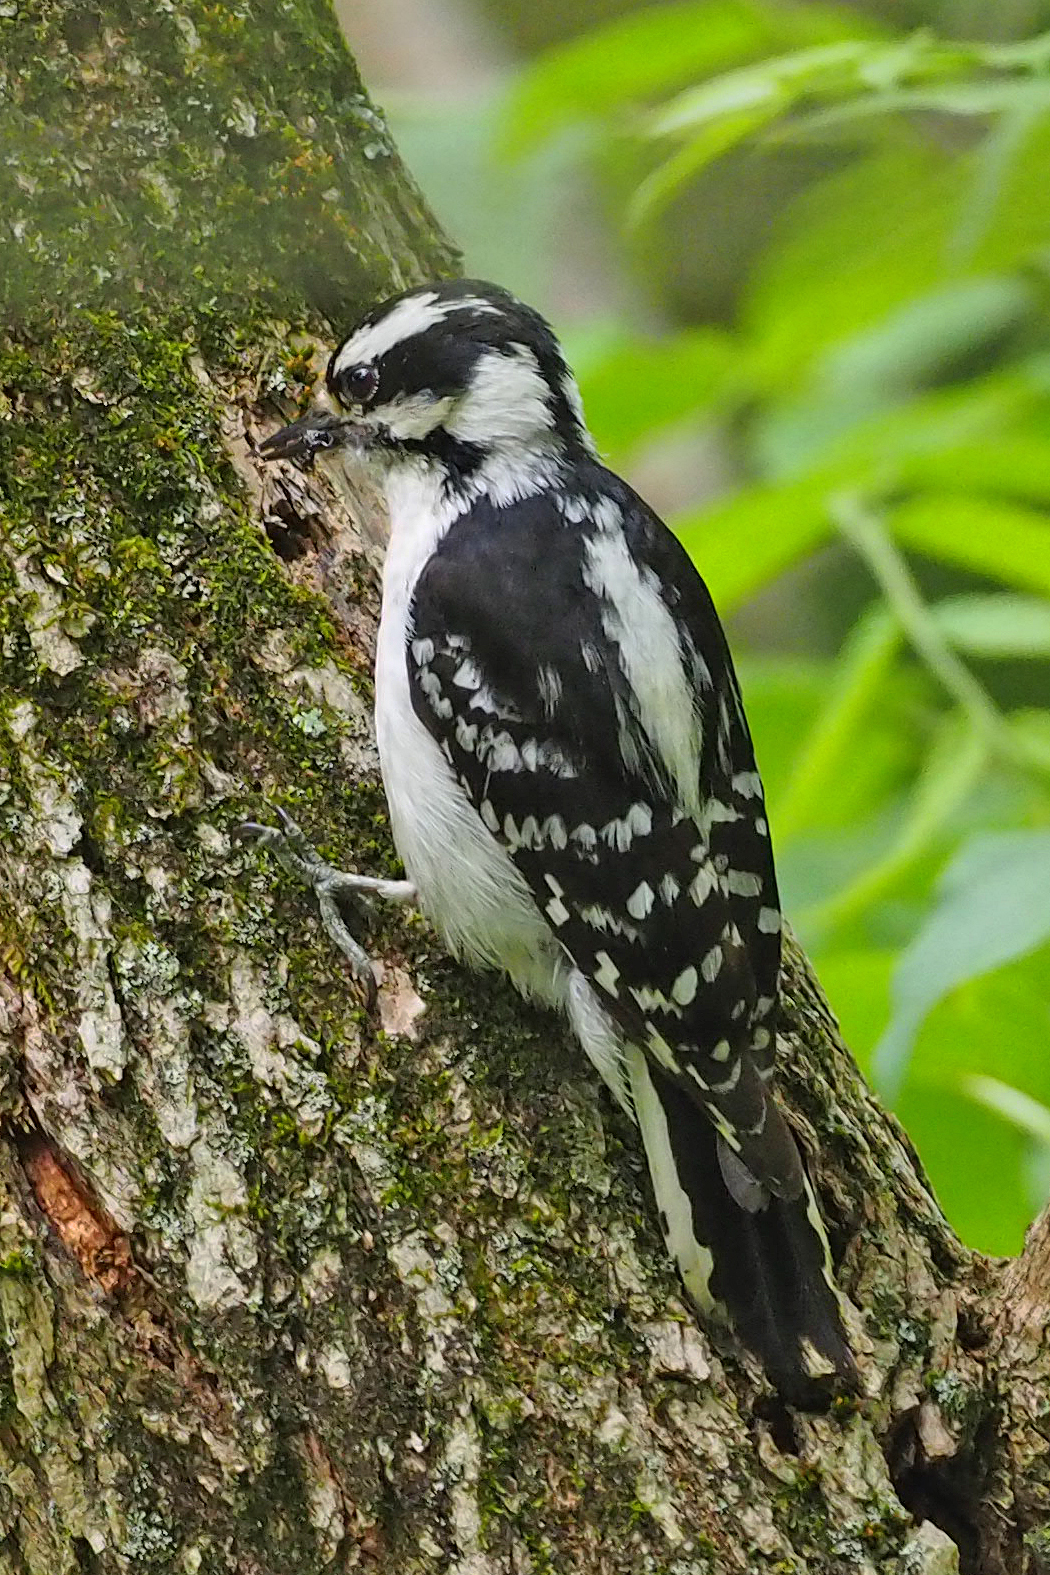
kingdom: Animalia
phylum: Chordata
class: Aves
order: Piciformes
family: Picidae
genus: Dryobates
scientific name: Dryobates pubescens
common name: Downy woodpecker
